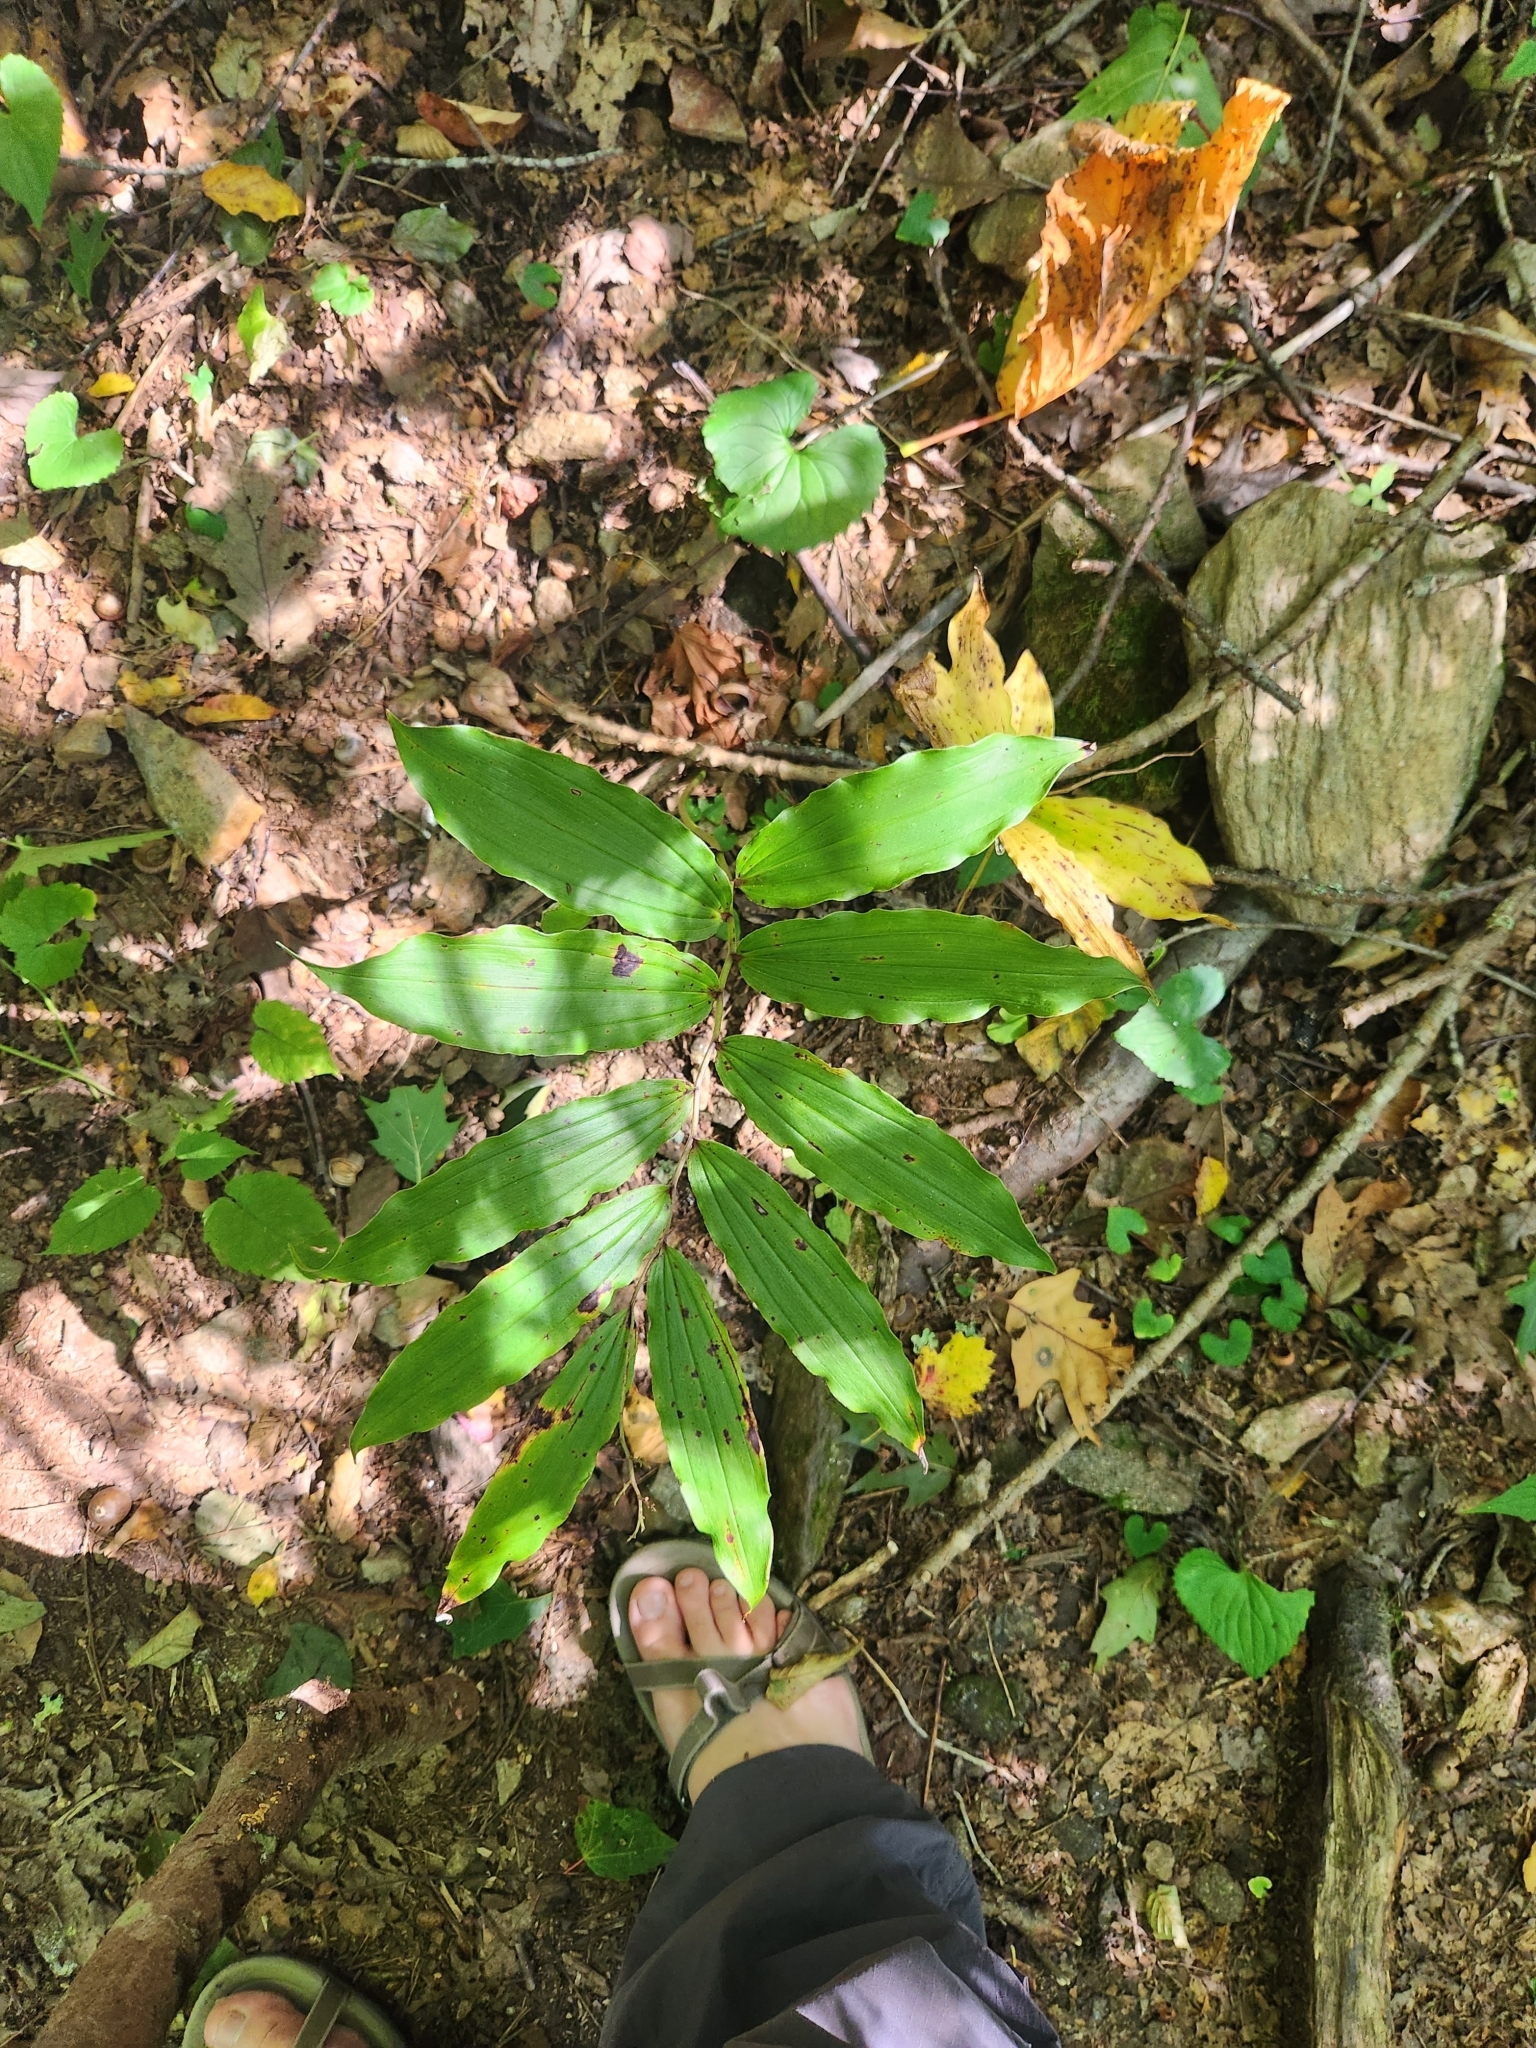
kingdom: Plantae
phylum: Tracheophyta
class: Liliopsida
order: Asparagales
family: Asparagaceae
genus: Maianthemum
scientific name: Maianthemum racemosum
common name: False spikenard
